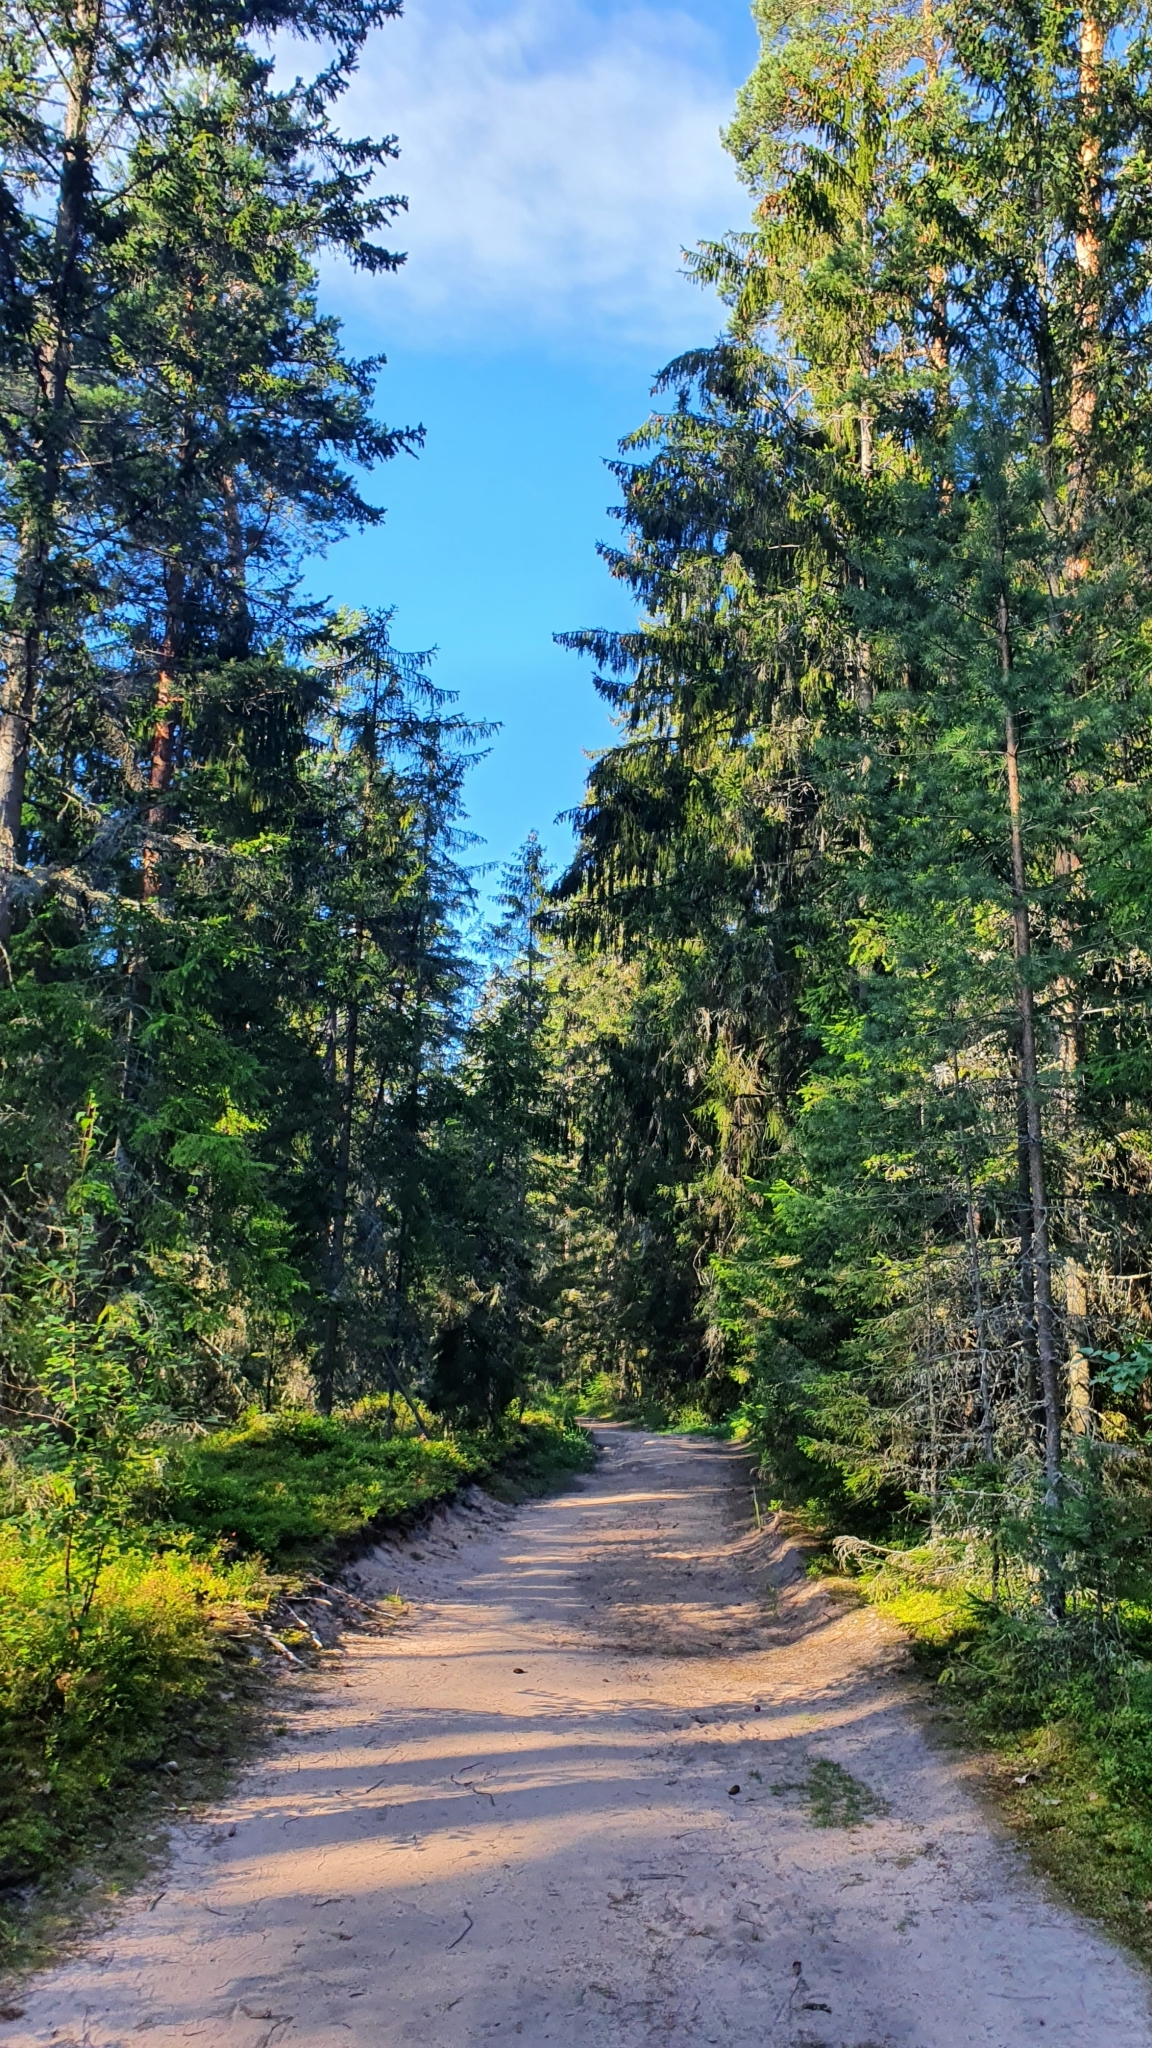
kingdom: Plantae
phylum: Tracheophyta
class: Pinopsida
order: Pinales
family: Pinaceae
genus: Picea
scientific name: Picea
